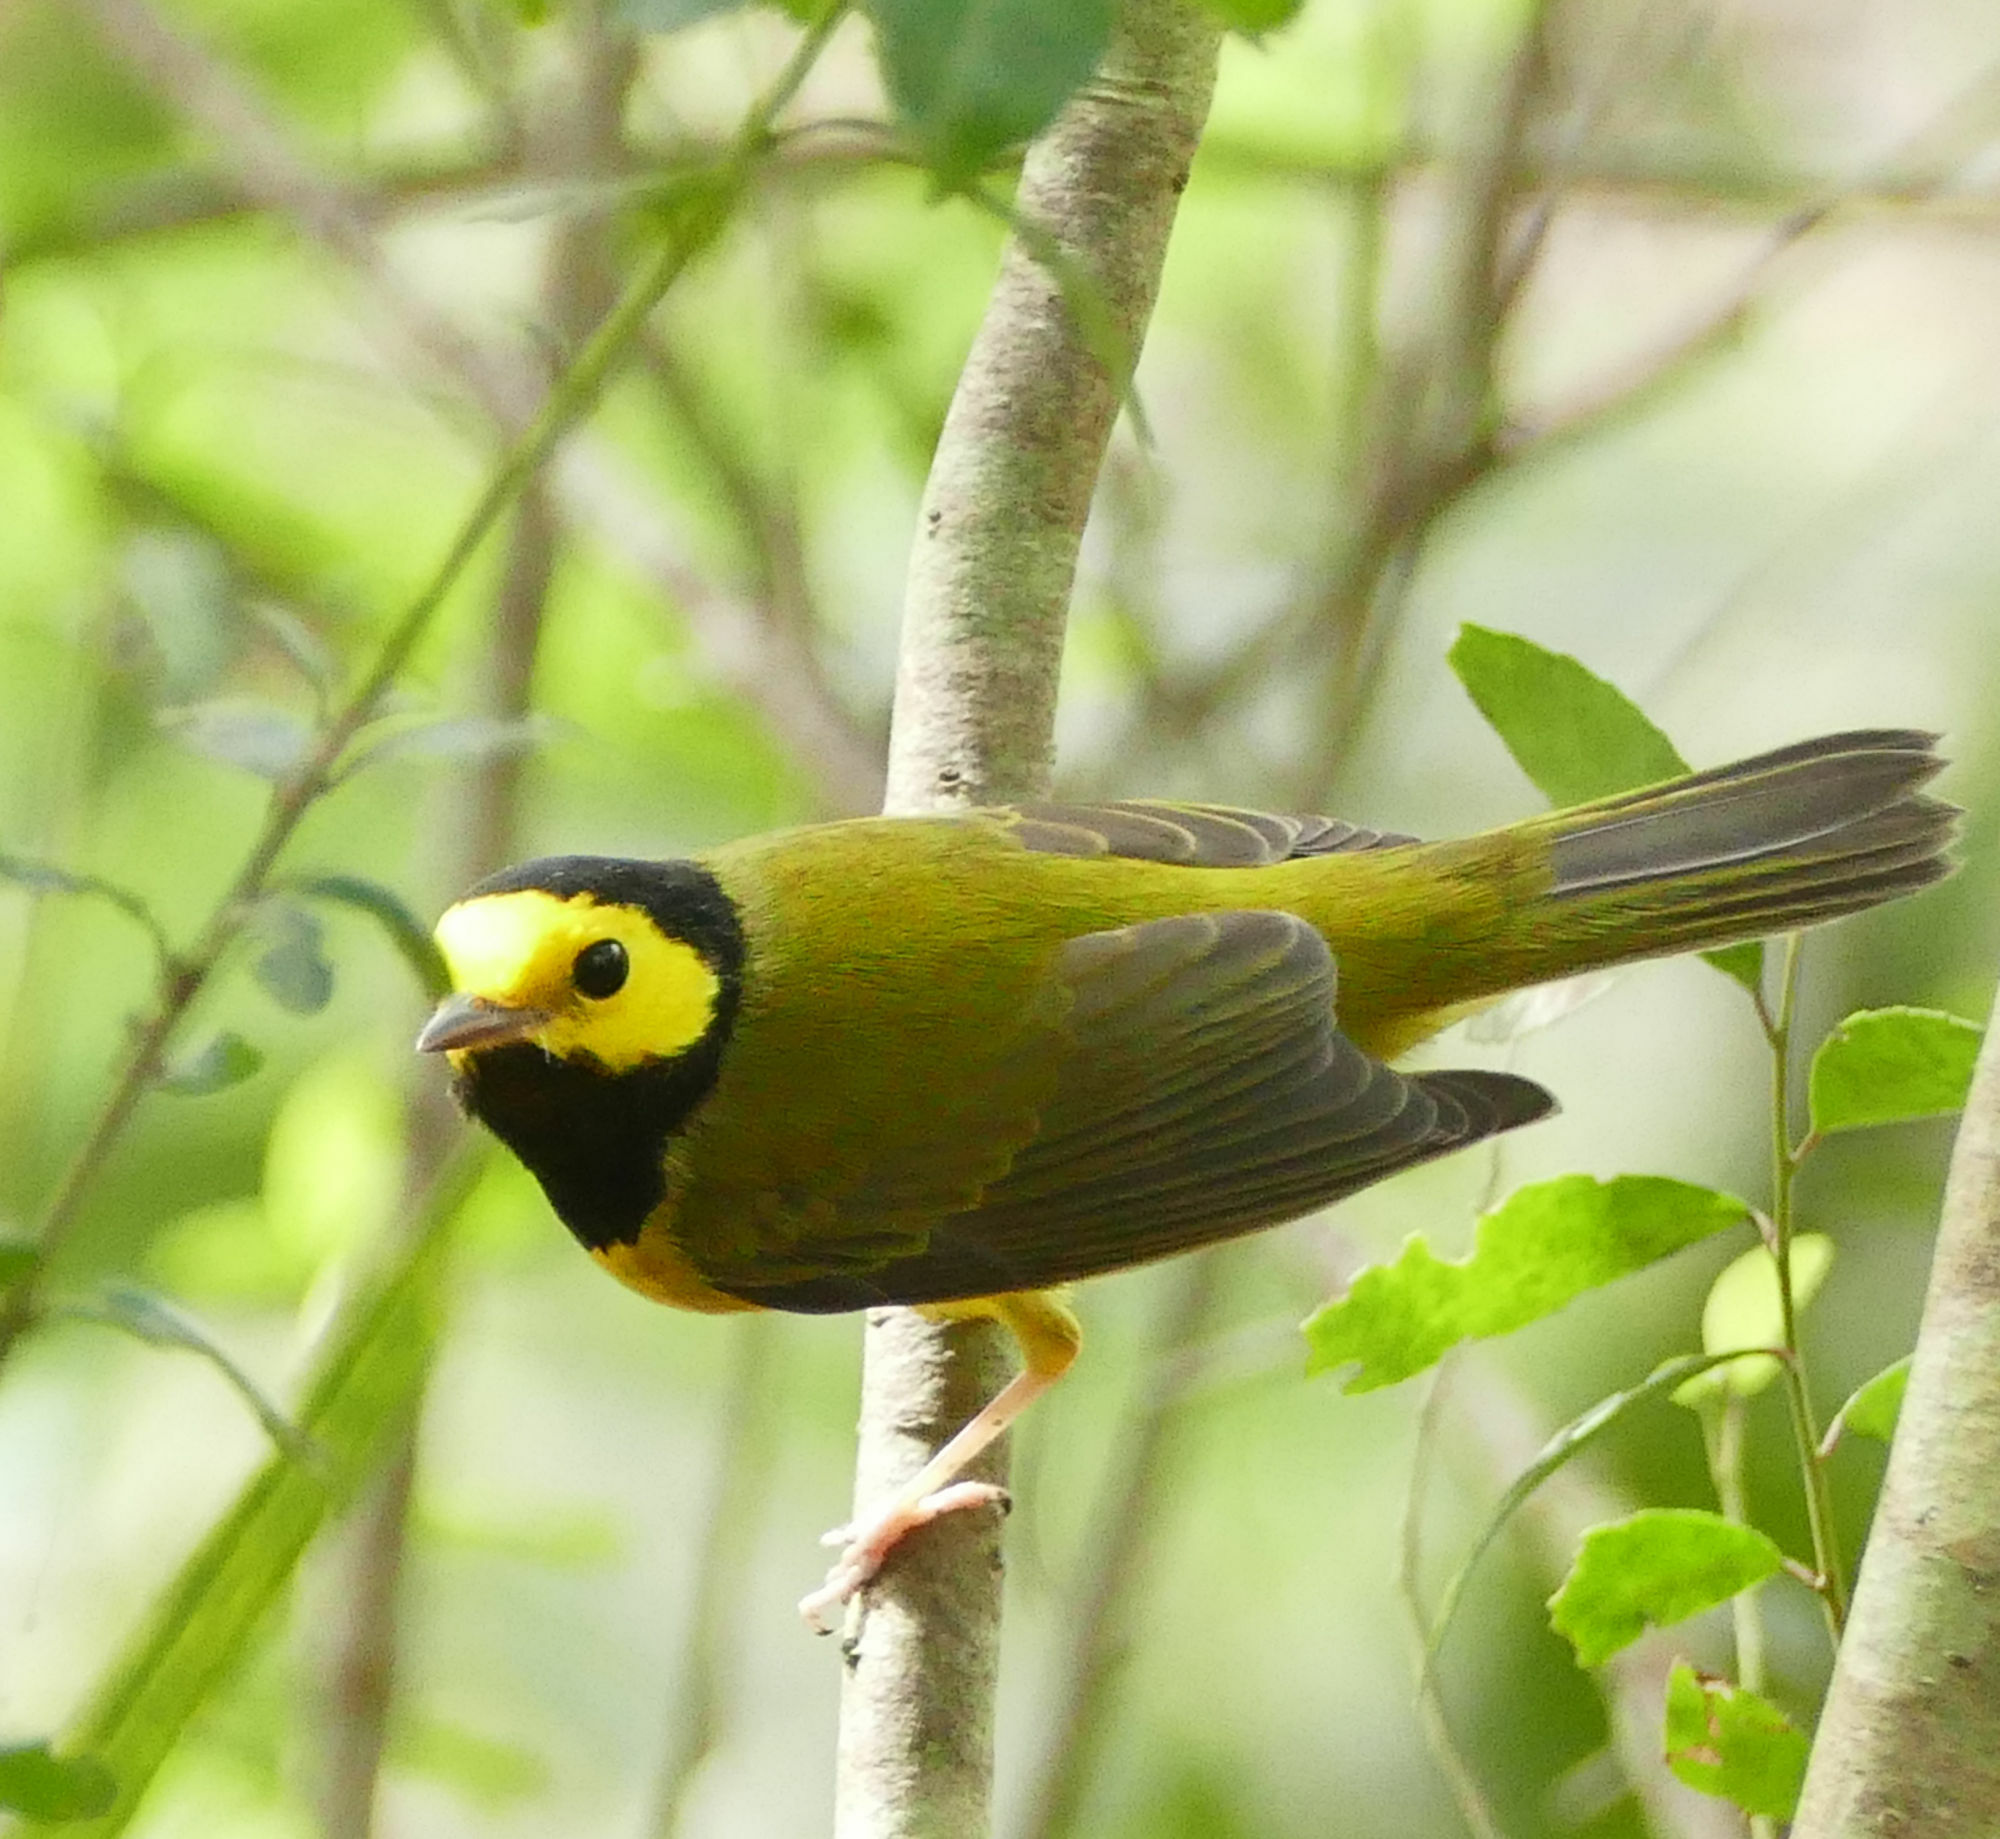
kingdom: Animalia
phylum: Chordata
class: Aves
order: Passeriformes
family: Parulidae
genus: Setophaga
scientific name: Setophaga citrina
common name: Hooded warbler
